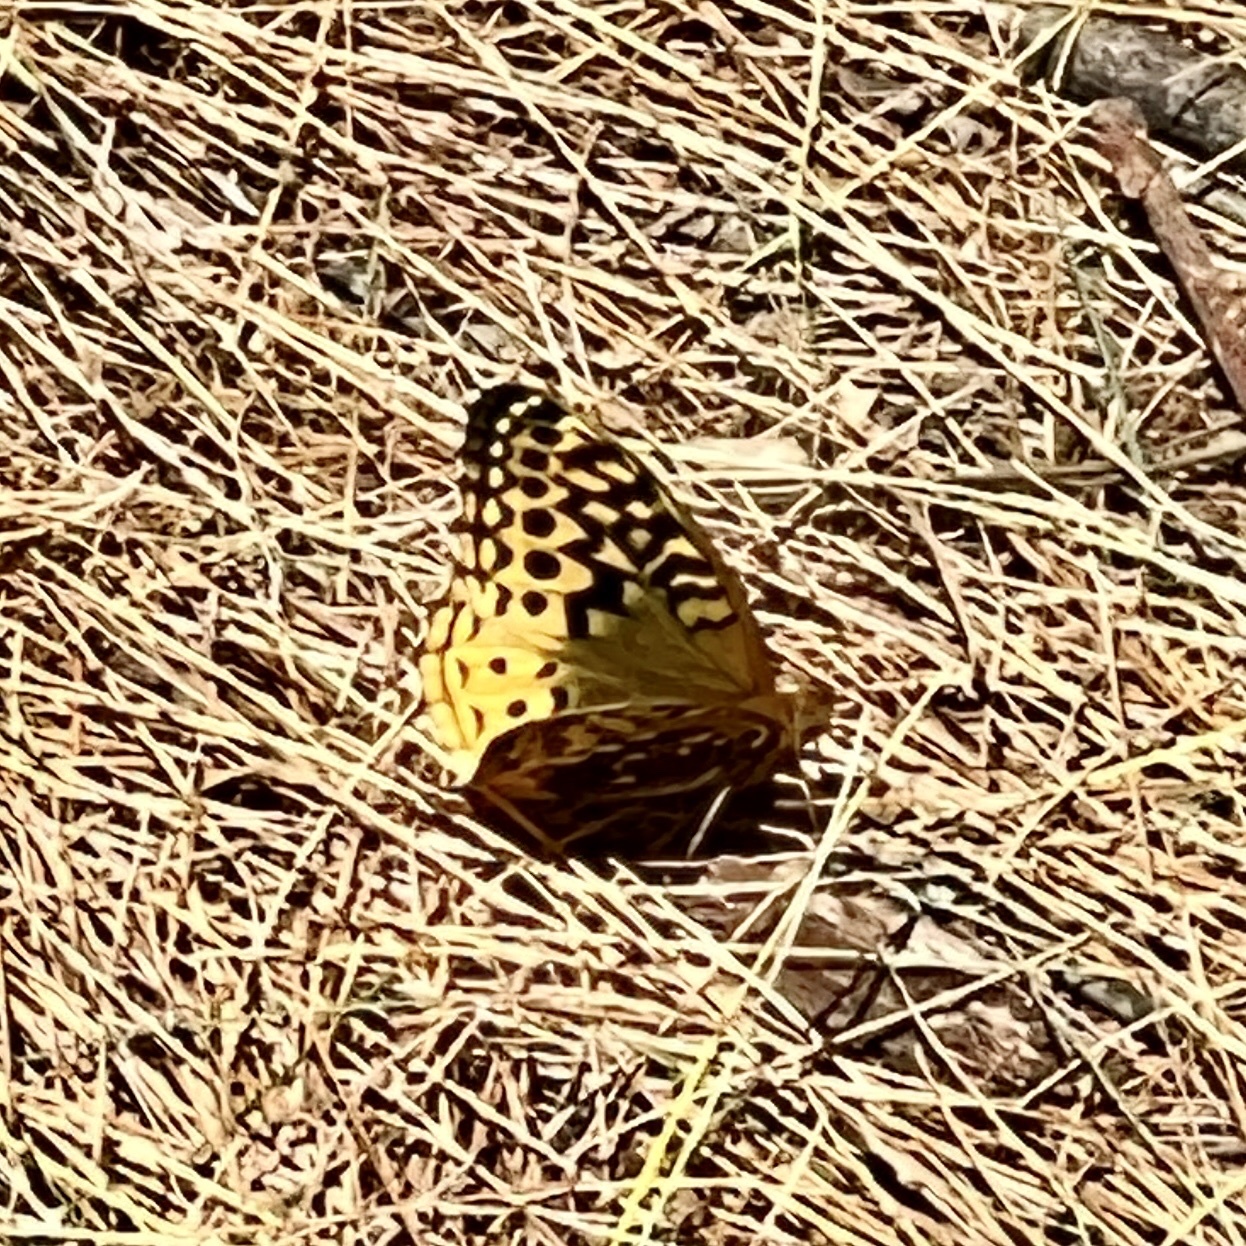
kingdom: Animalia
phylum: Arthropoda
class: Insecta
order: Lepidoptera
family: Nymphalidae
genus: Speyeria
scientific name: Speyeria cybele
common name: Great spangled fritillary
